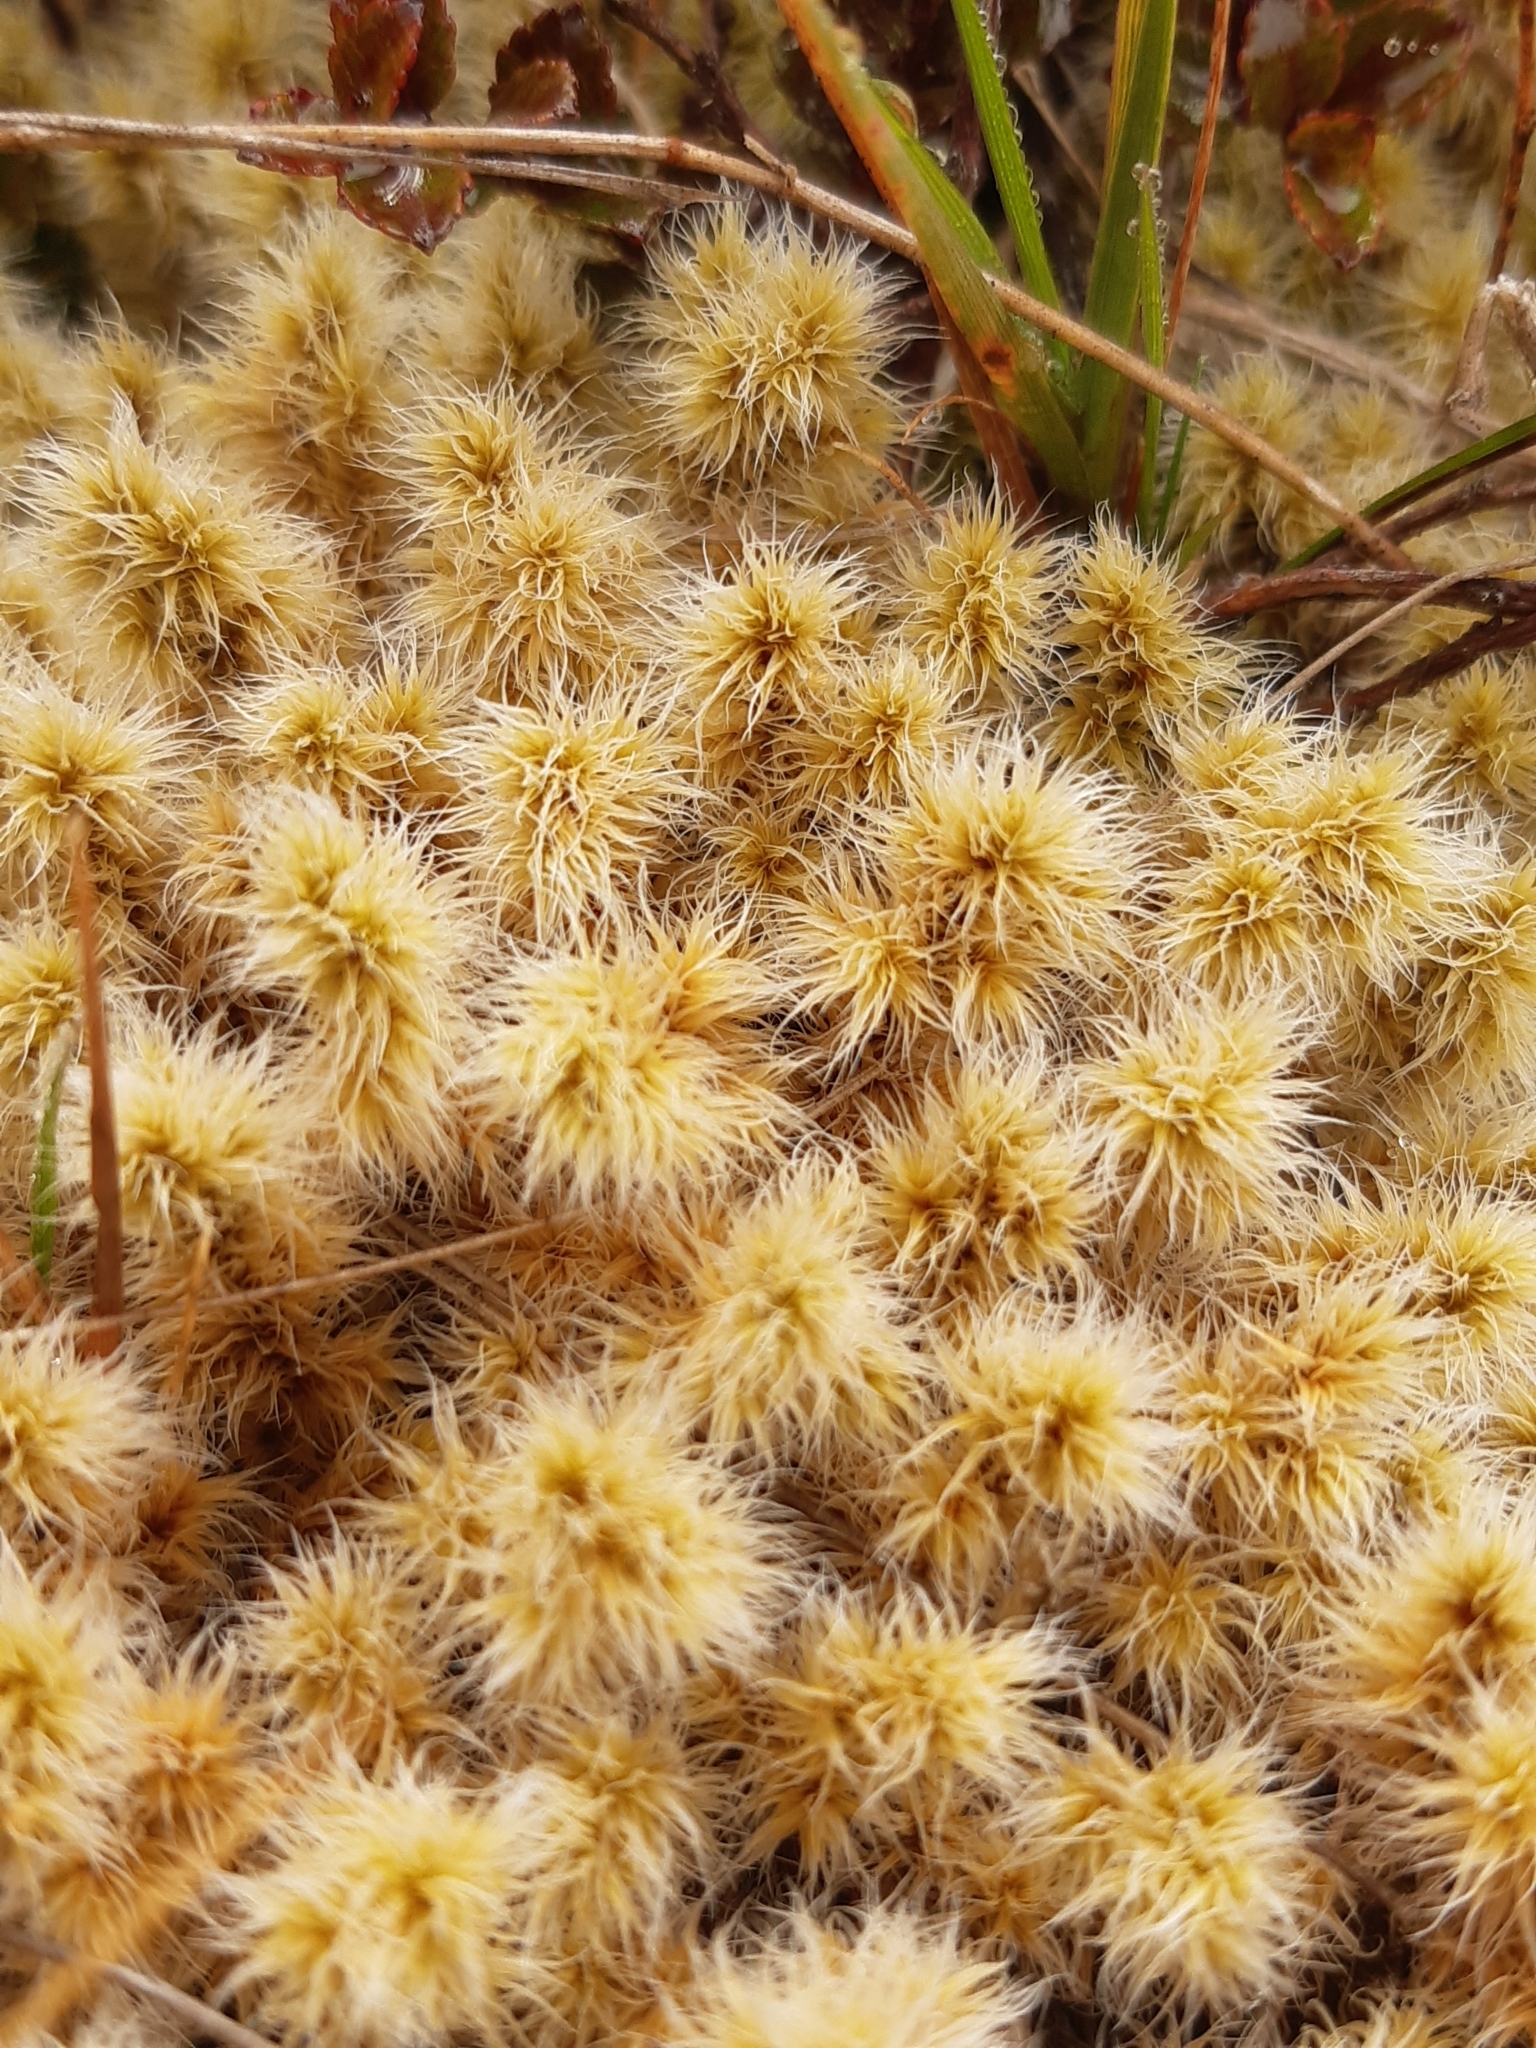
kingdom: Plantae
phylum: Bryophyta
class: Bryopsida
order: Grimmiales
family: Grimmiaceae
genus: Racomitrium
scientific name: Racomitrium lanuginosum
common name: Hoary rock moss
